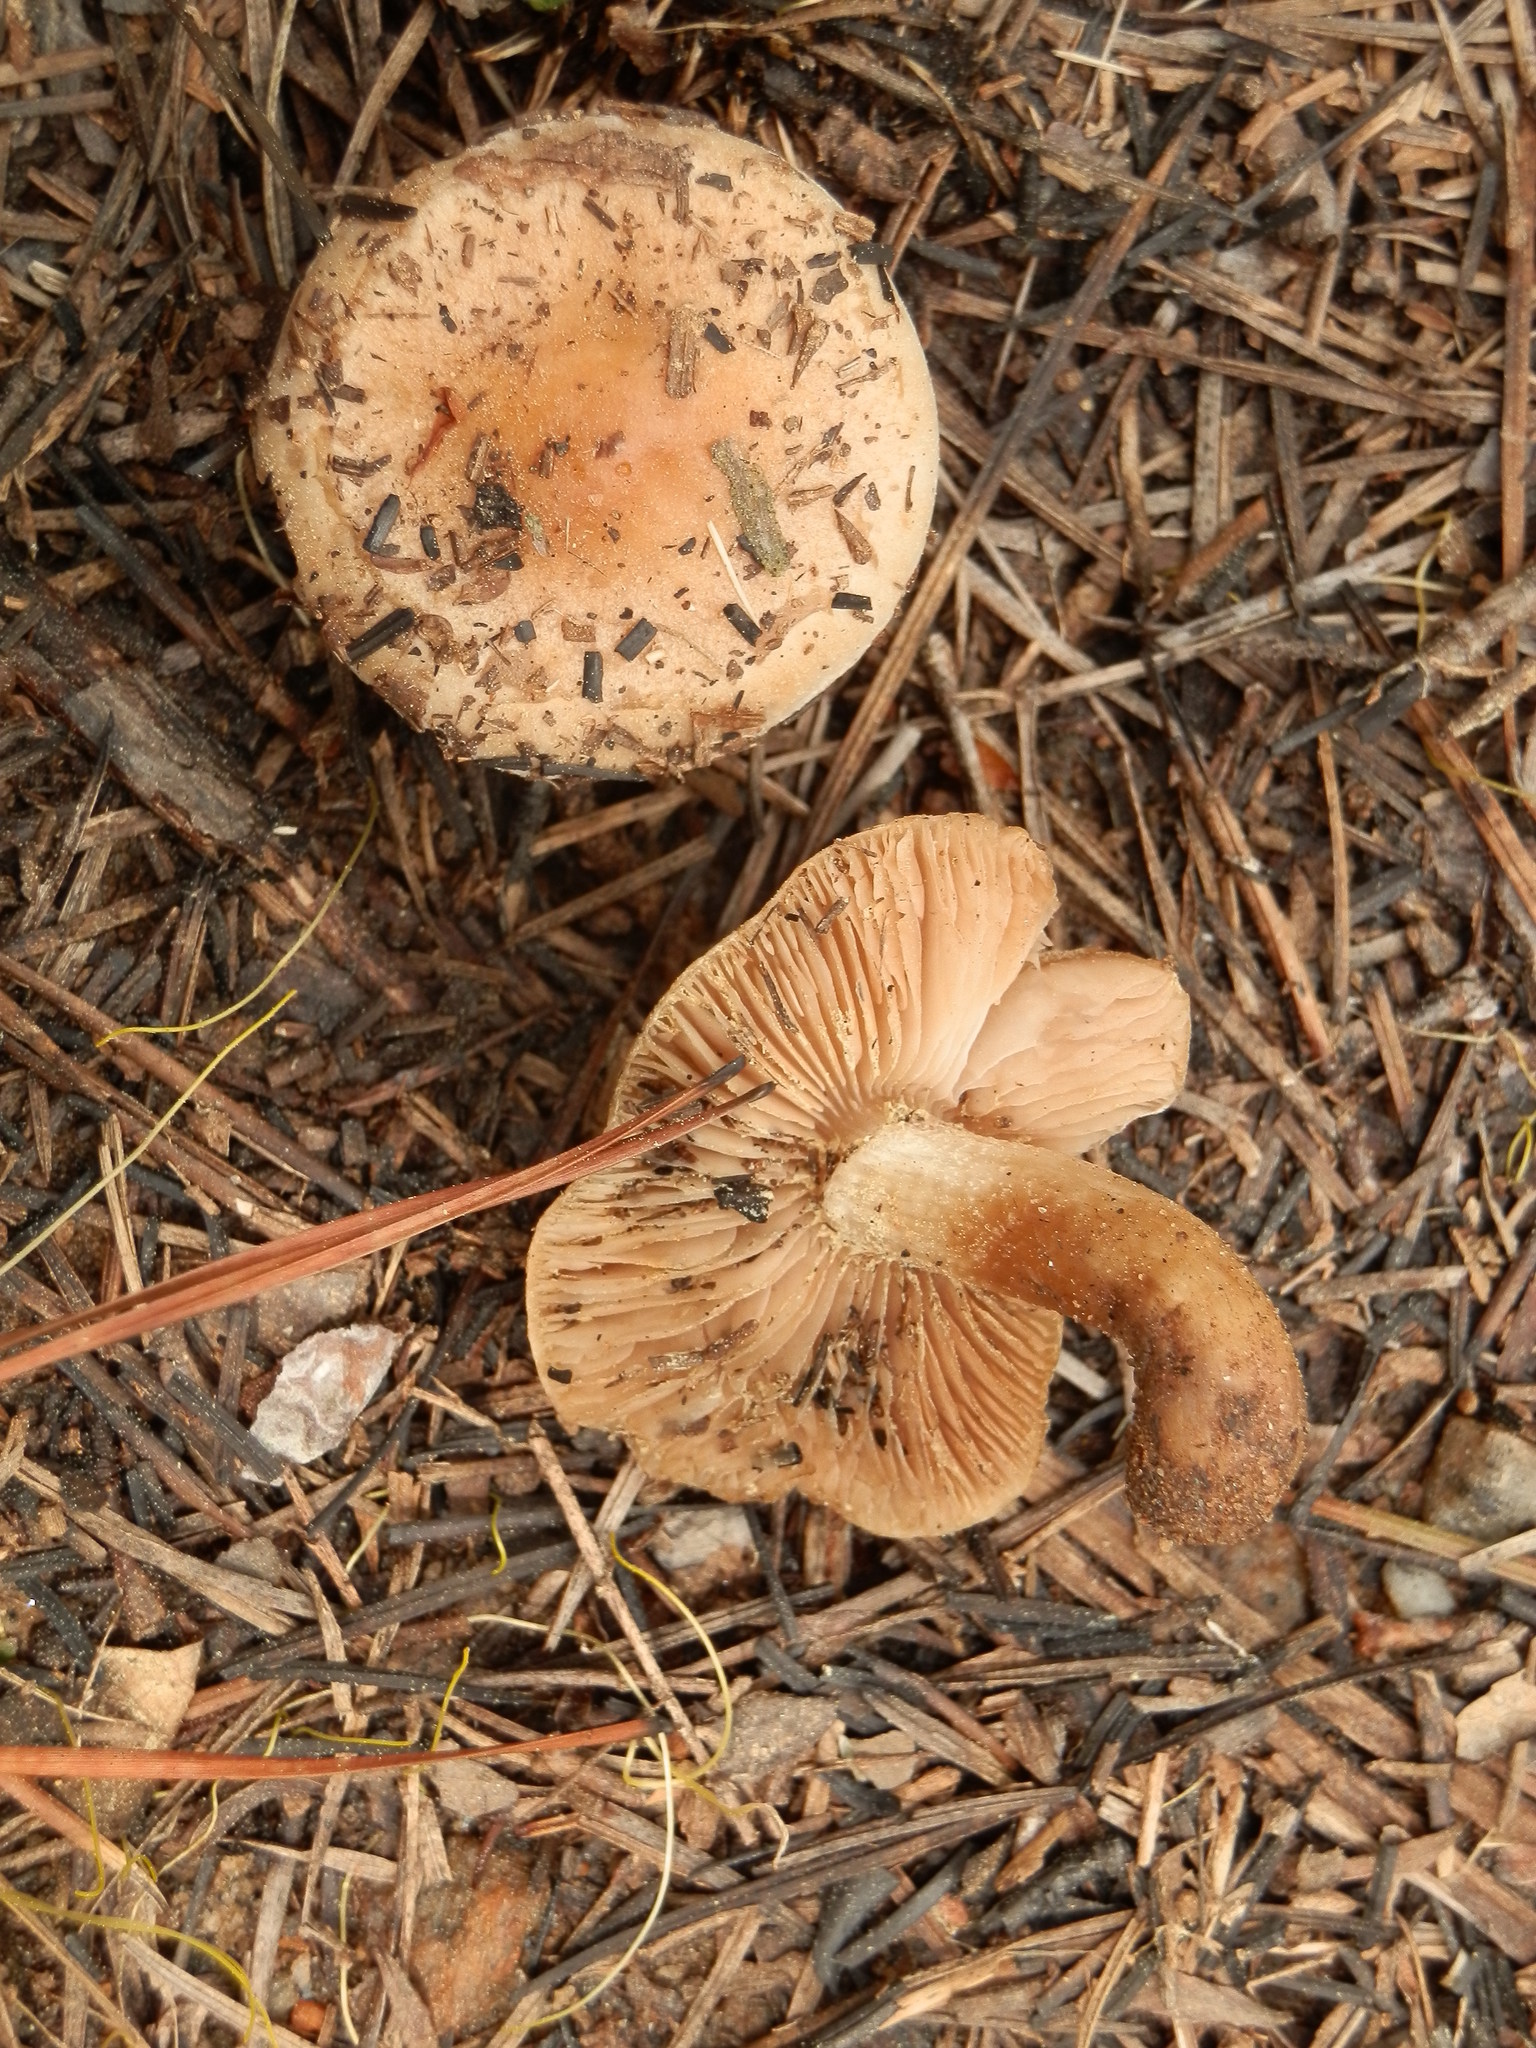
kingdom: Fungi
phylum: Basidiomycota
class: Agaricomycetes
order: Agaricales
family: Hymenogastraceae
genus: Hebeloma
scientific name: Hebeloma mesophaeum
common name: Veiled poisonpie
